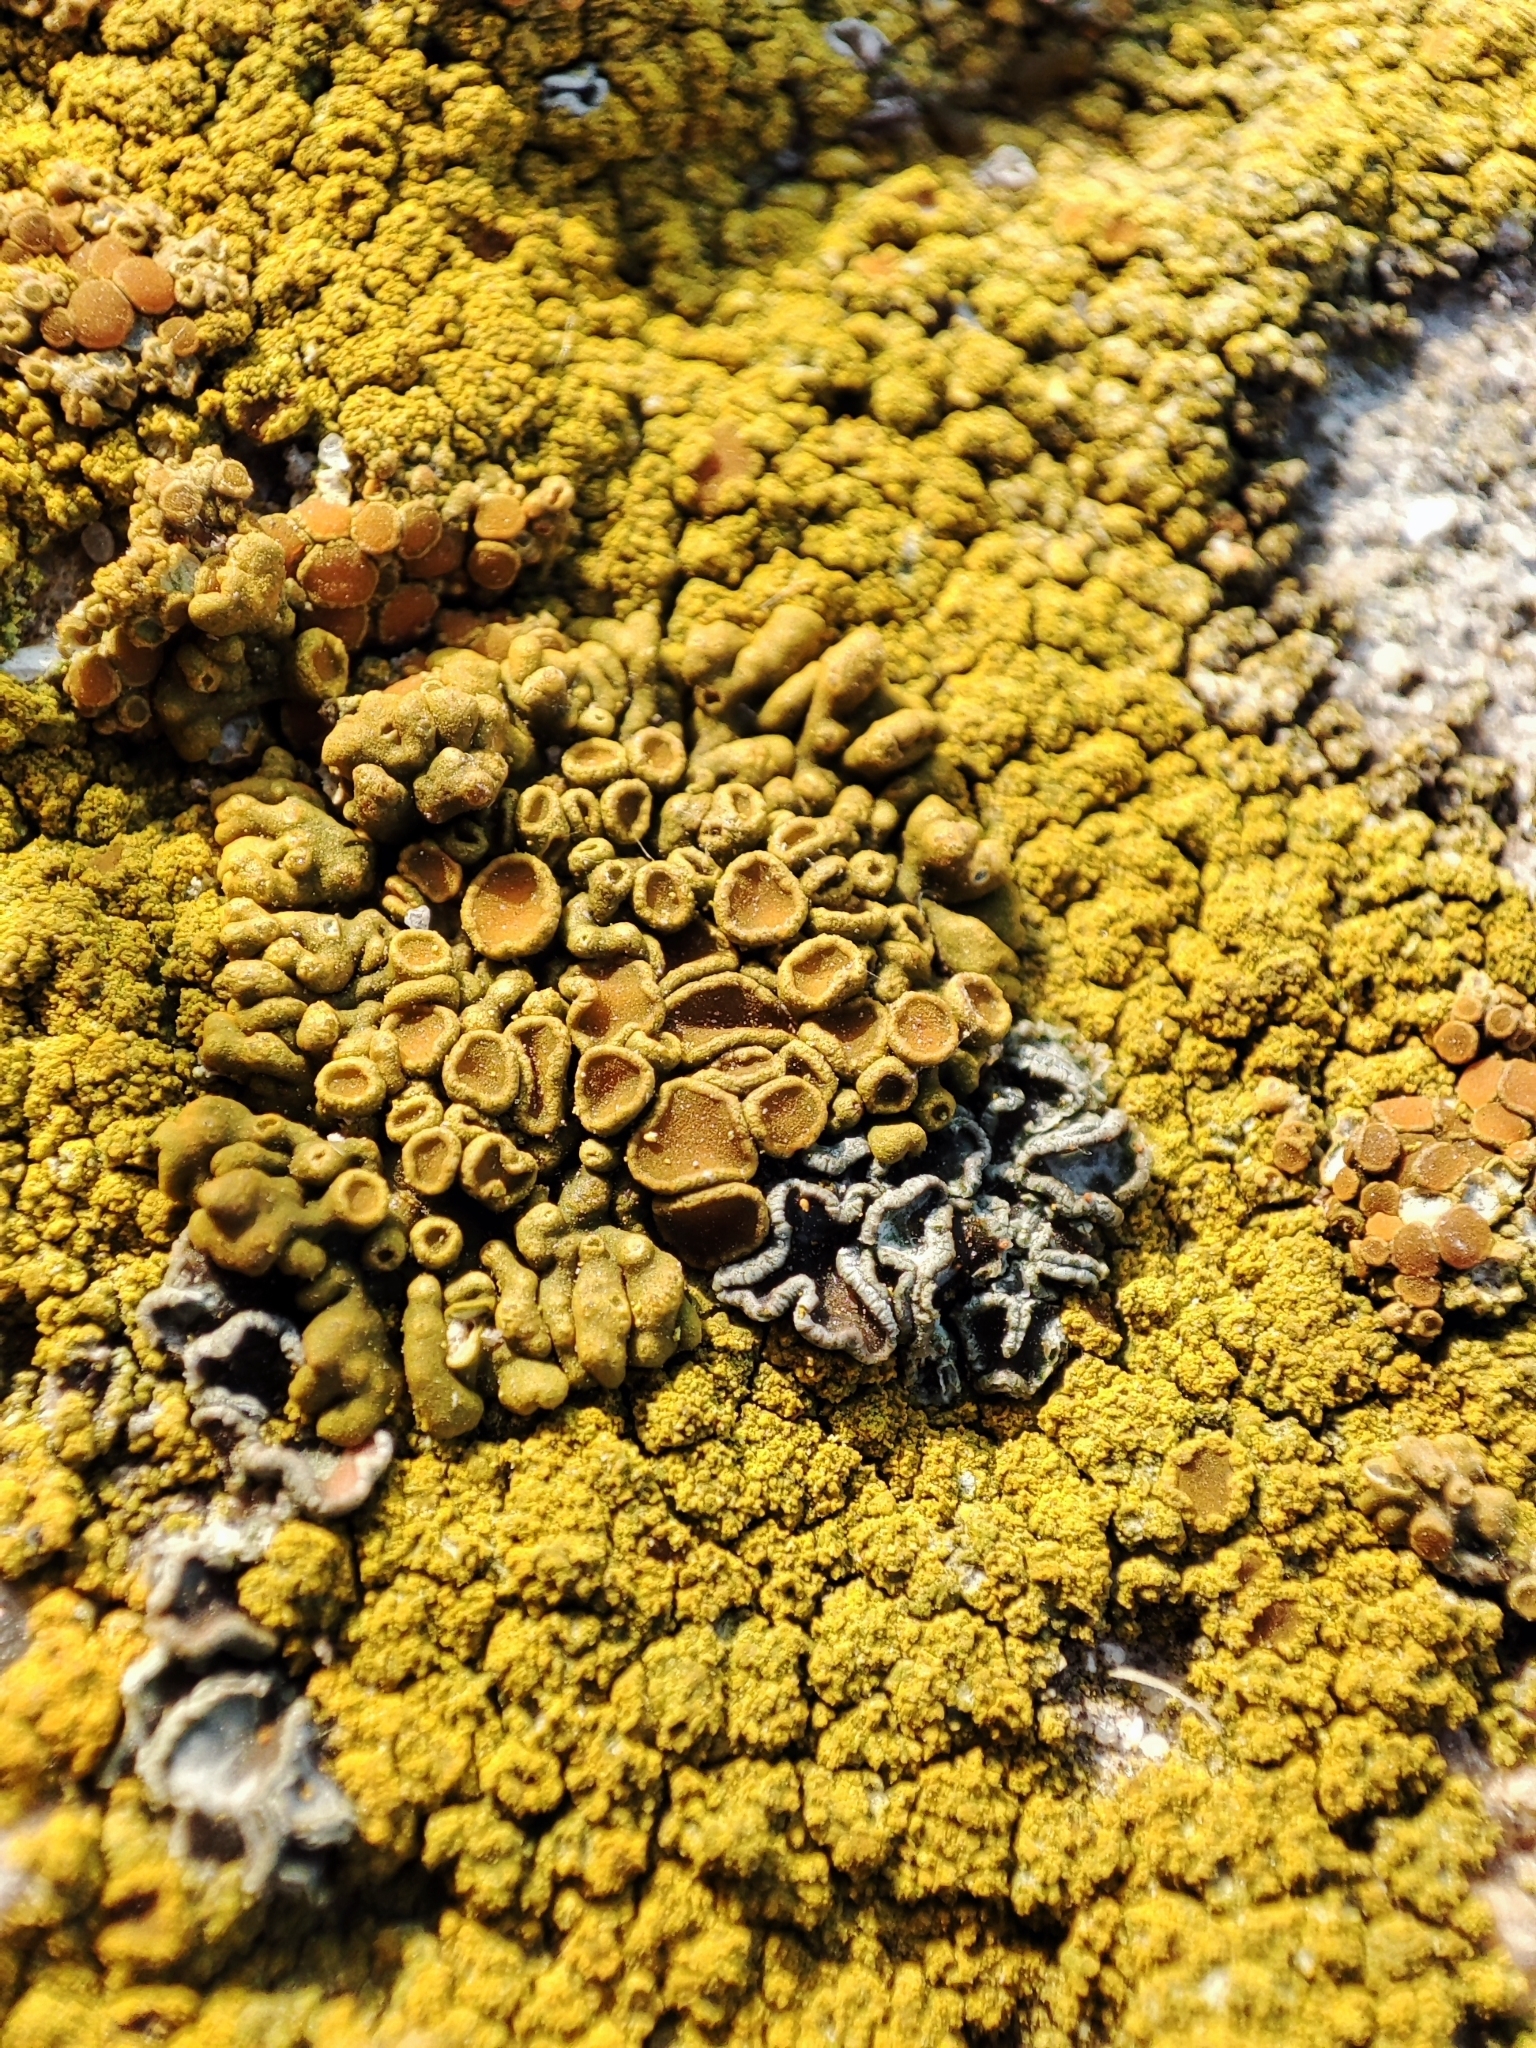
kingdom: Fungi
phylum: Ascomycota
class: Lecanoromycetes
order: Teloschistales
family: Teloschistaceae
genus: Calogaya
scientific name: Calogaya saxicola
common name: Rock jewel lichen
